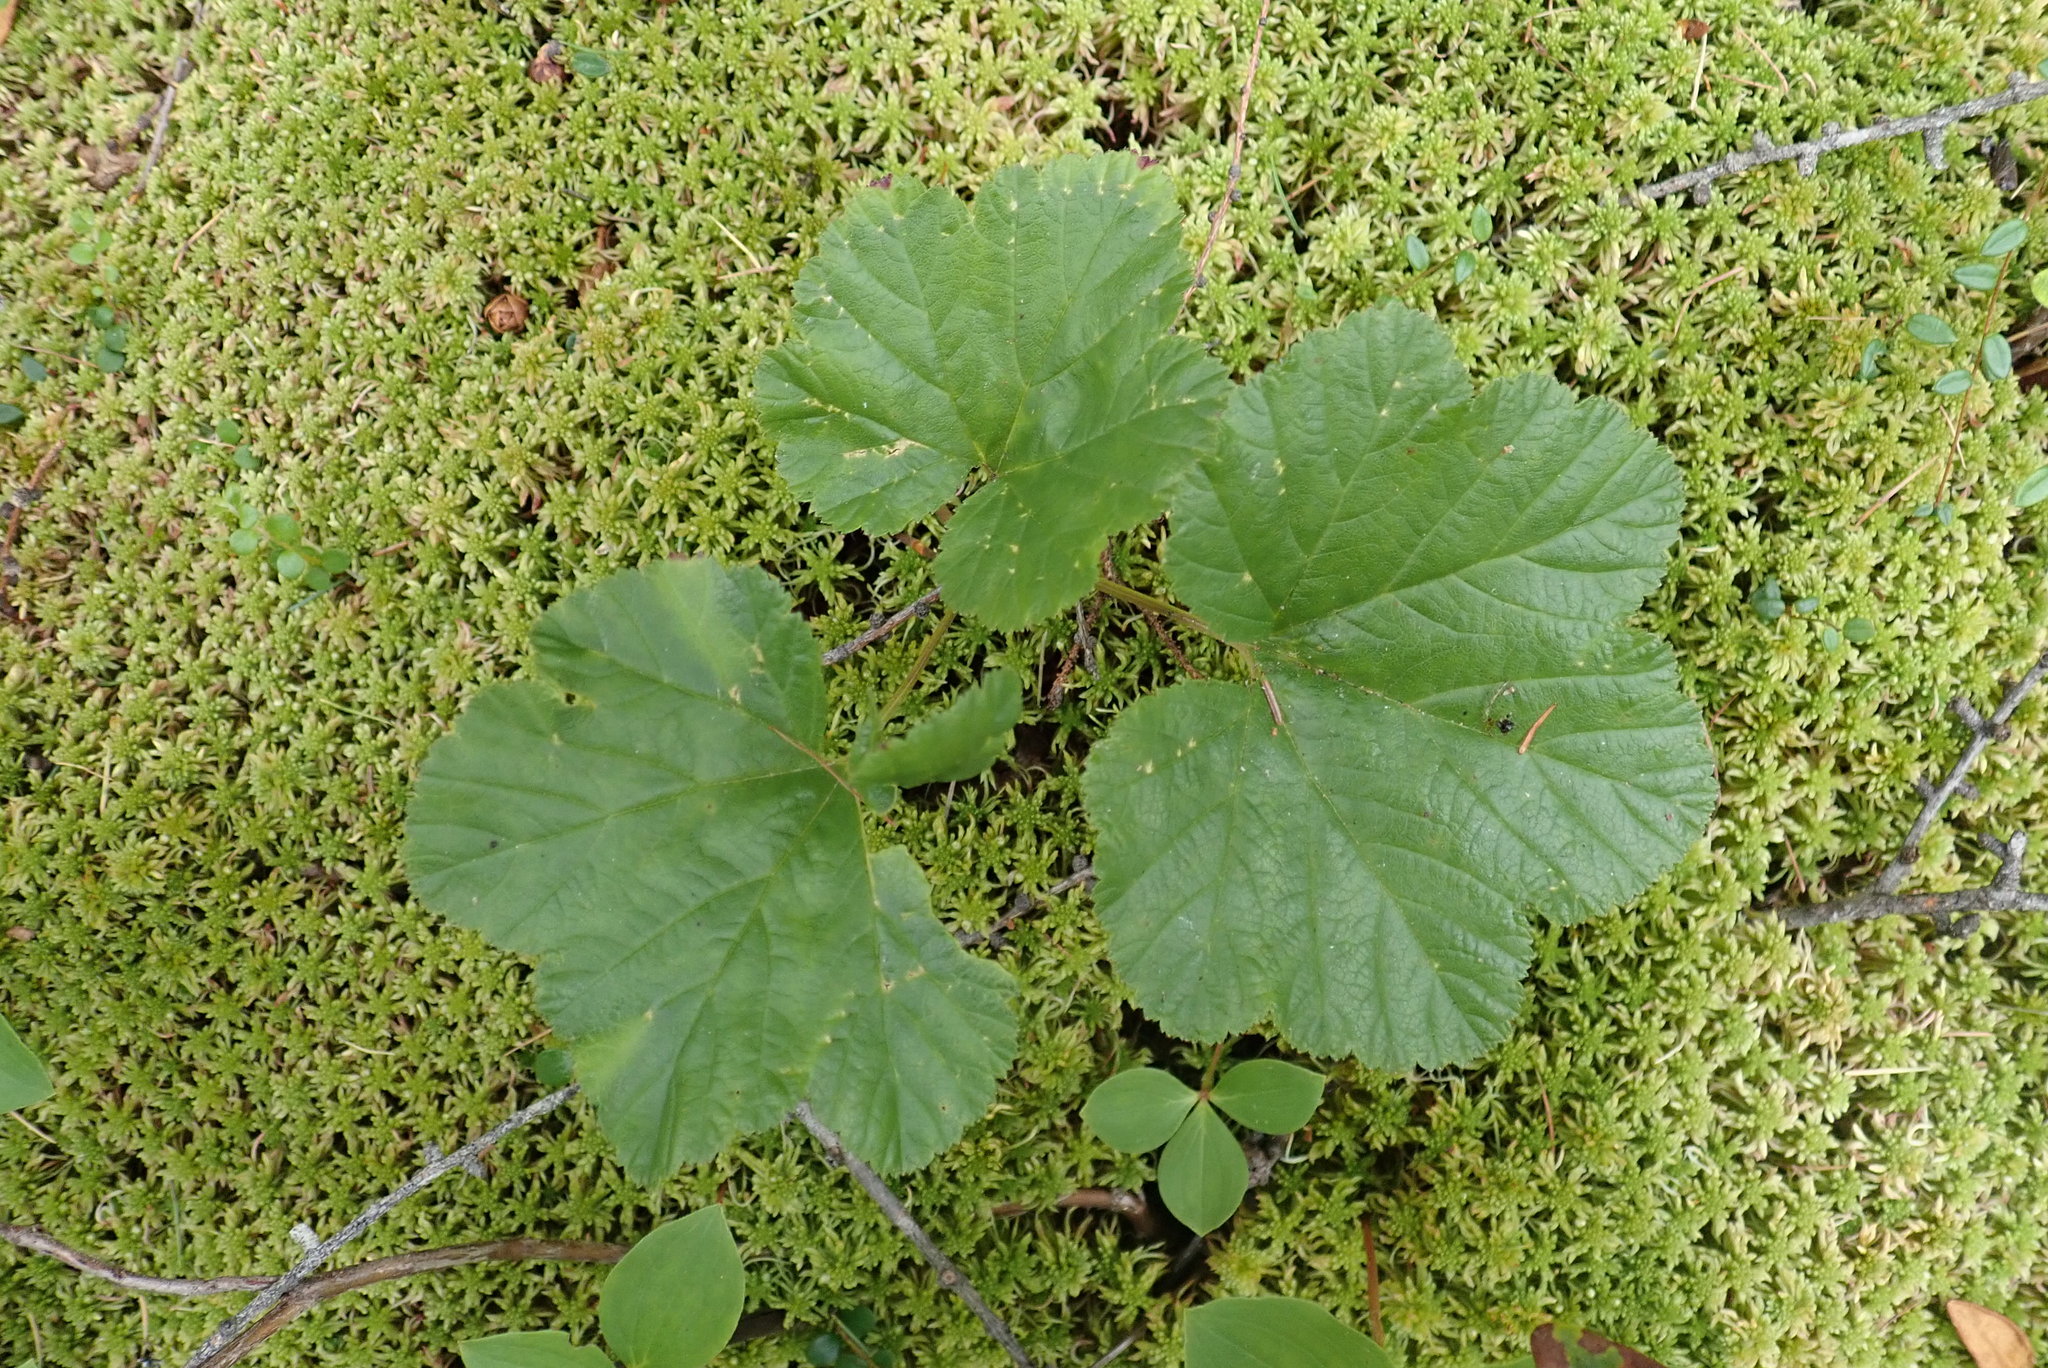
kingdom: Plantae
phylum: Tracheophyta
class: Magnoliopsida
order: Rosales
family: Rosaceae
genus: Rubus
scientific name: Rubus chamaemorus
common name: Cloudberry
